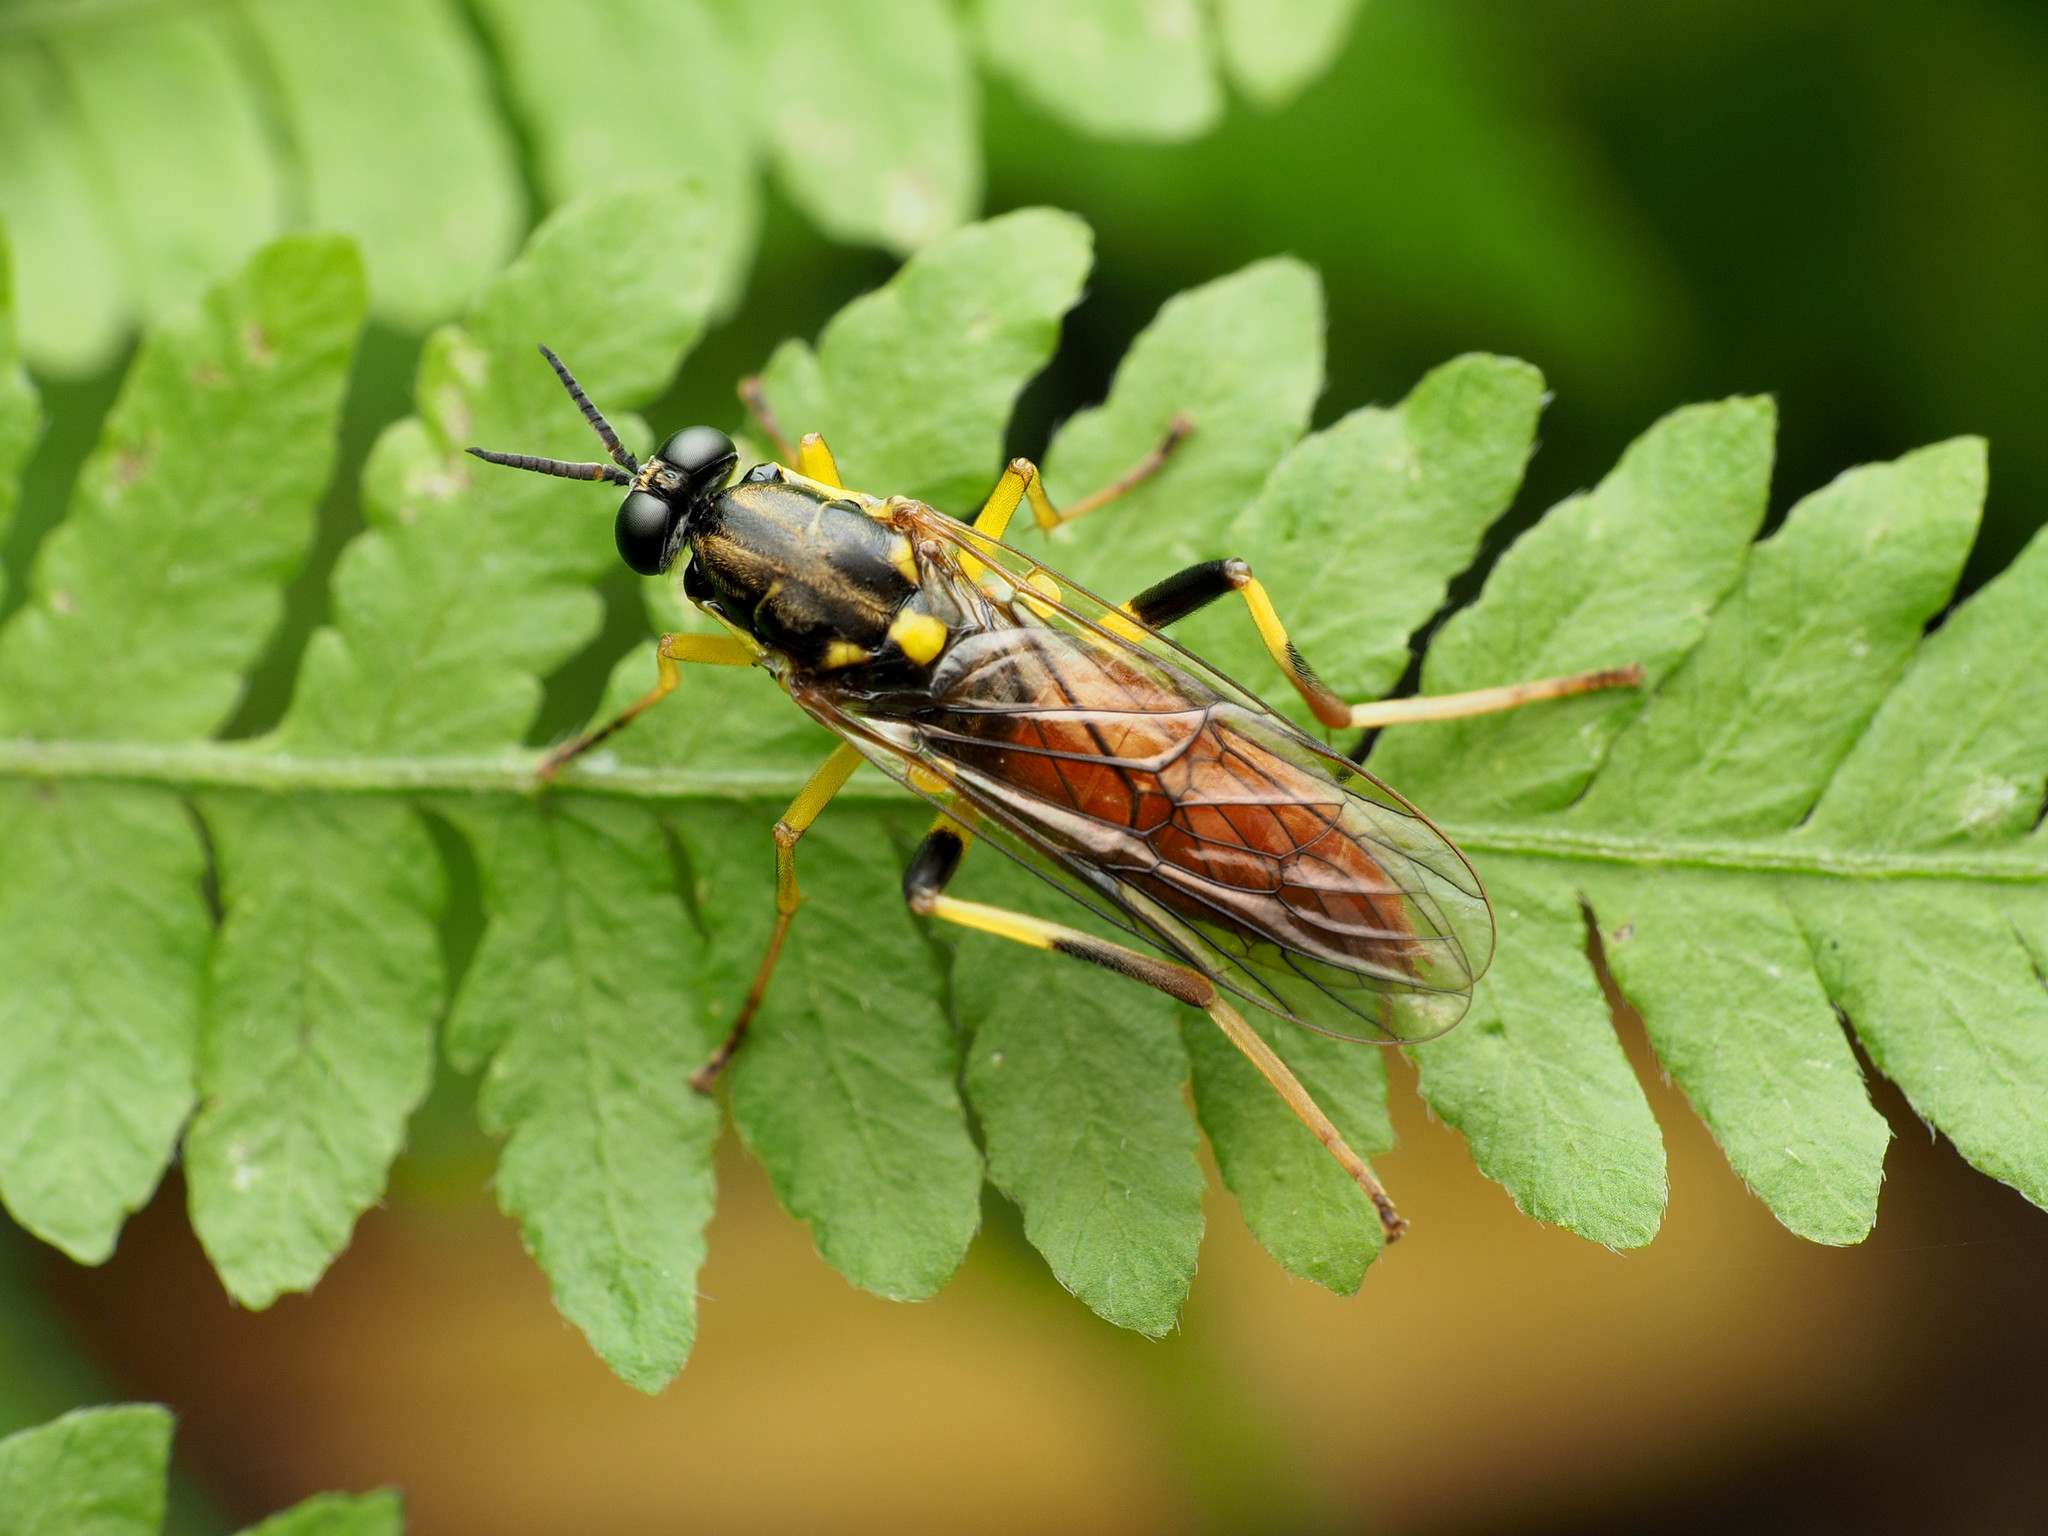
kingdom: Animalia
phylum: Arthropoda
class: Insecta
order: Diptera
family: Xylomyidae
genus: Xylomya
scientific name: Xylomya simillima
